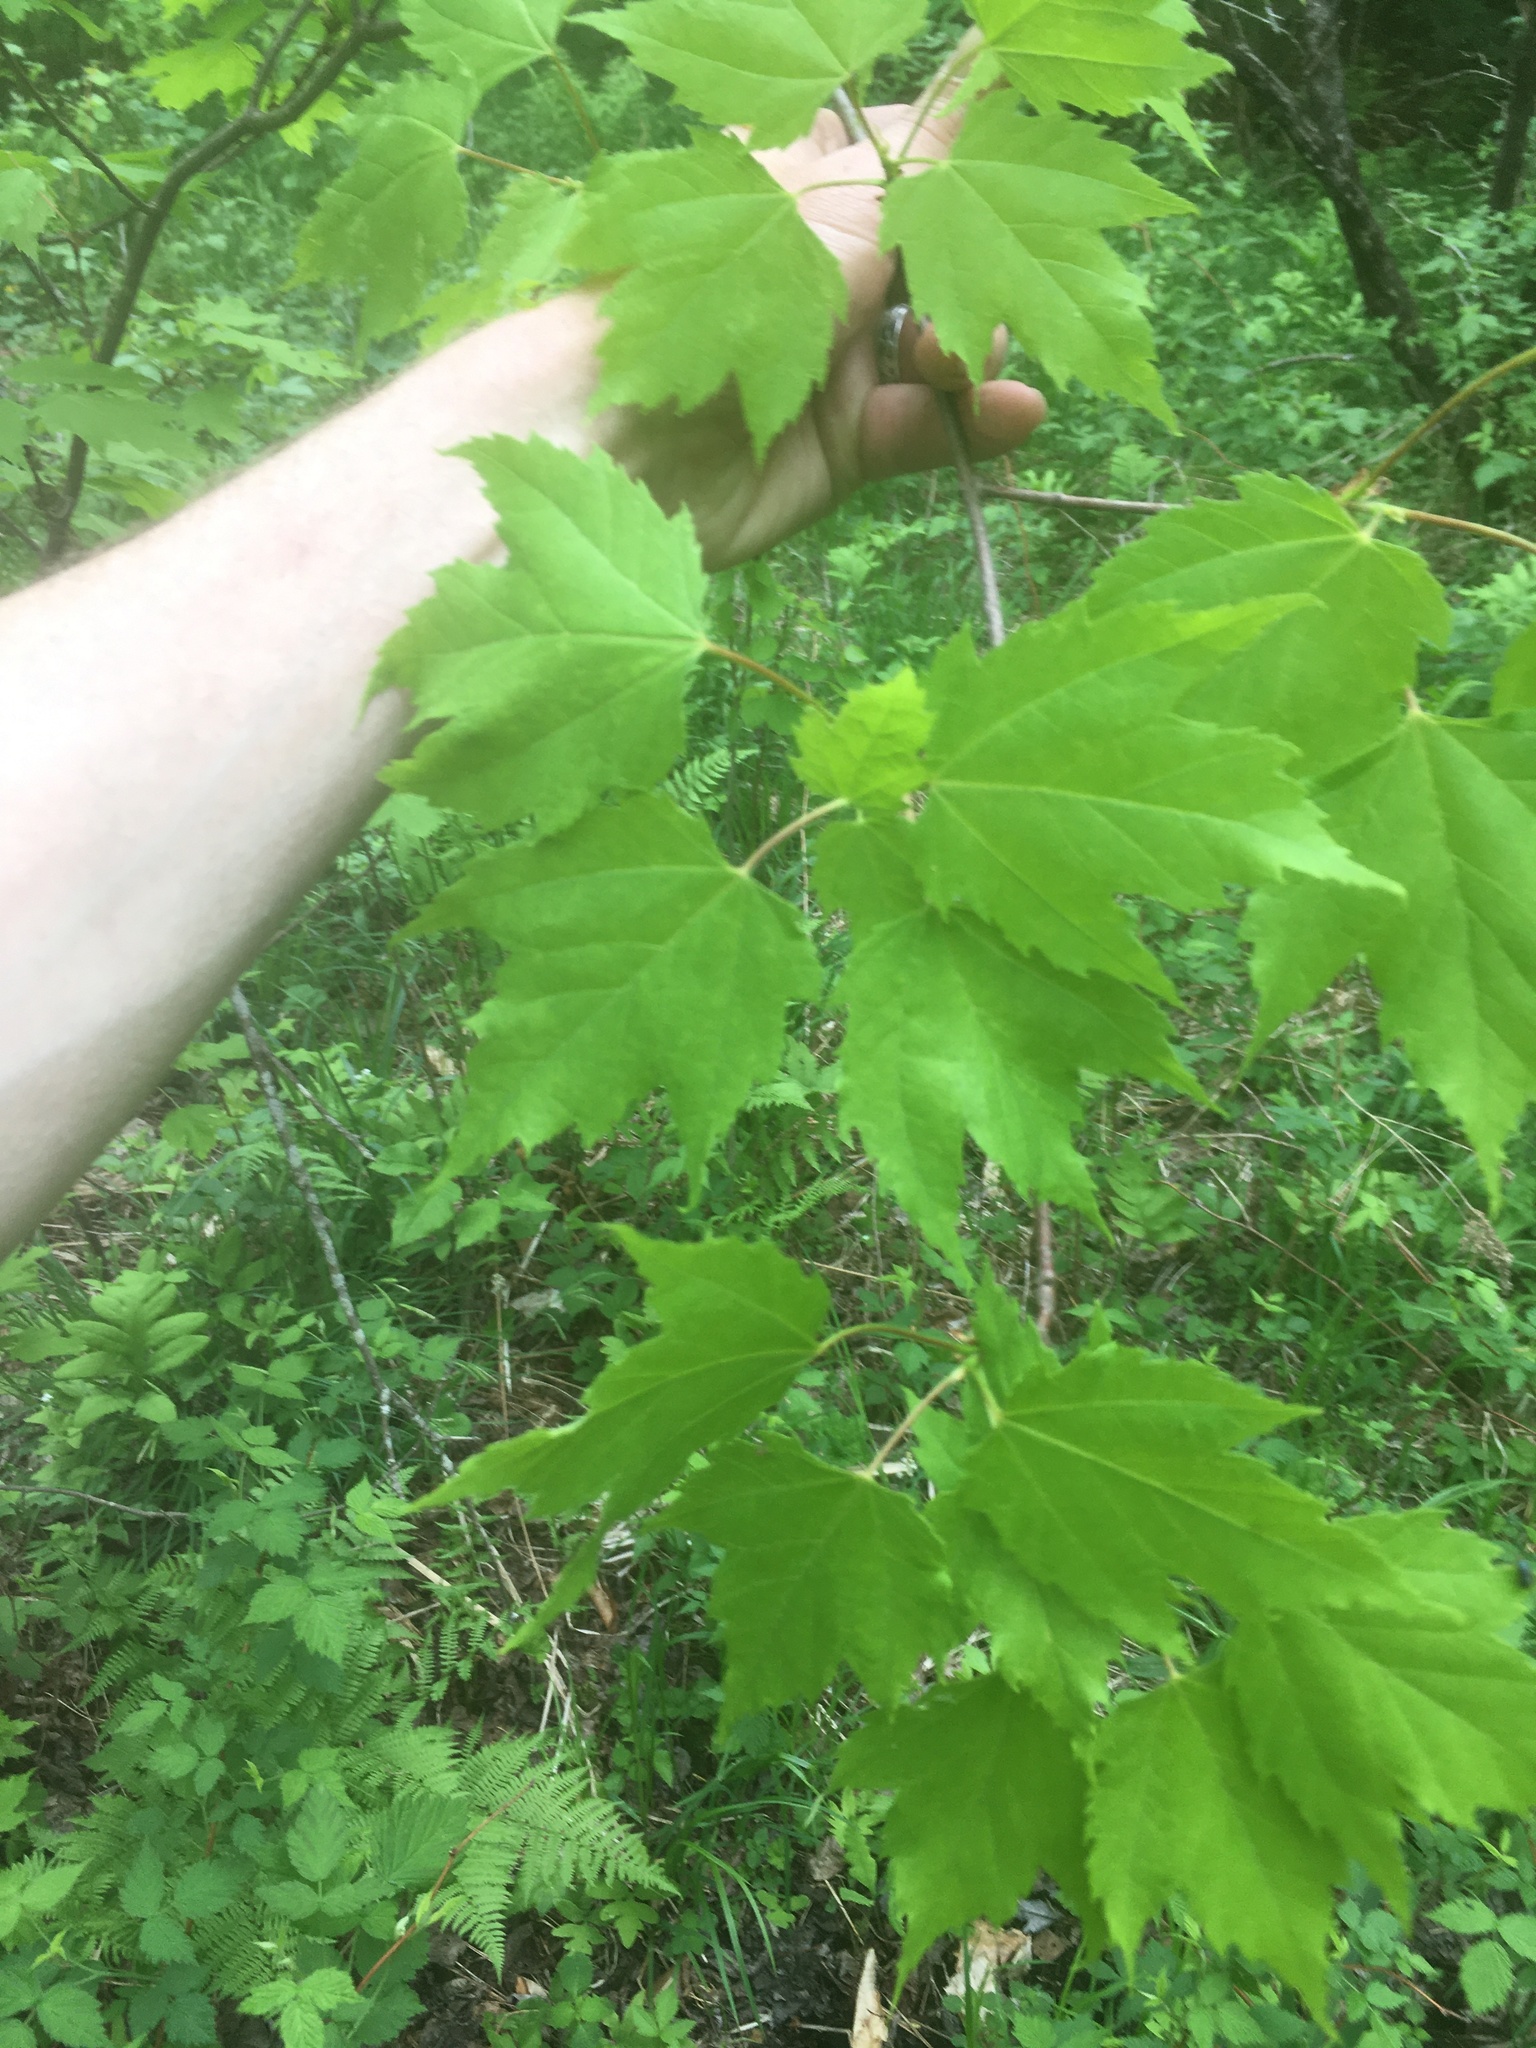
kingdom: Plantae
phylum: Tracheophyta
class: Magnoliopsida
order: Sapindales
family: Sapindaceae
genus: Acer
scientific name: Acer rubrum
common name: Red maple
